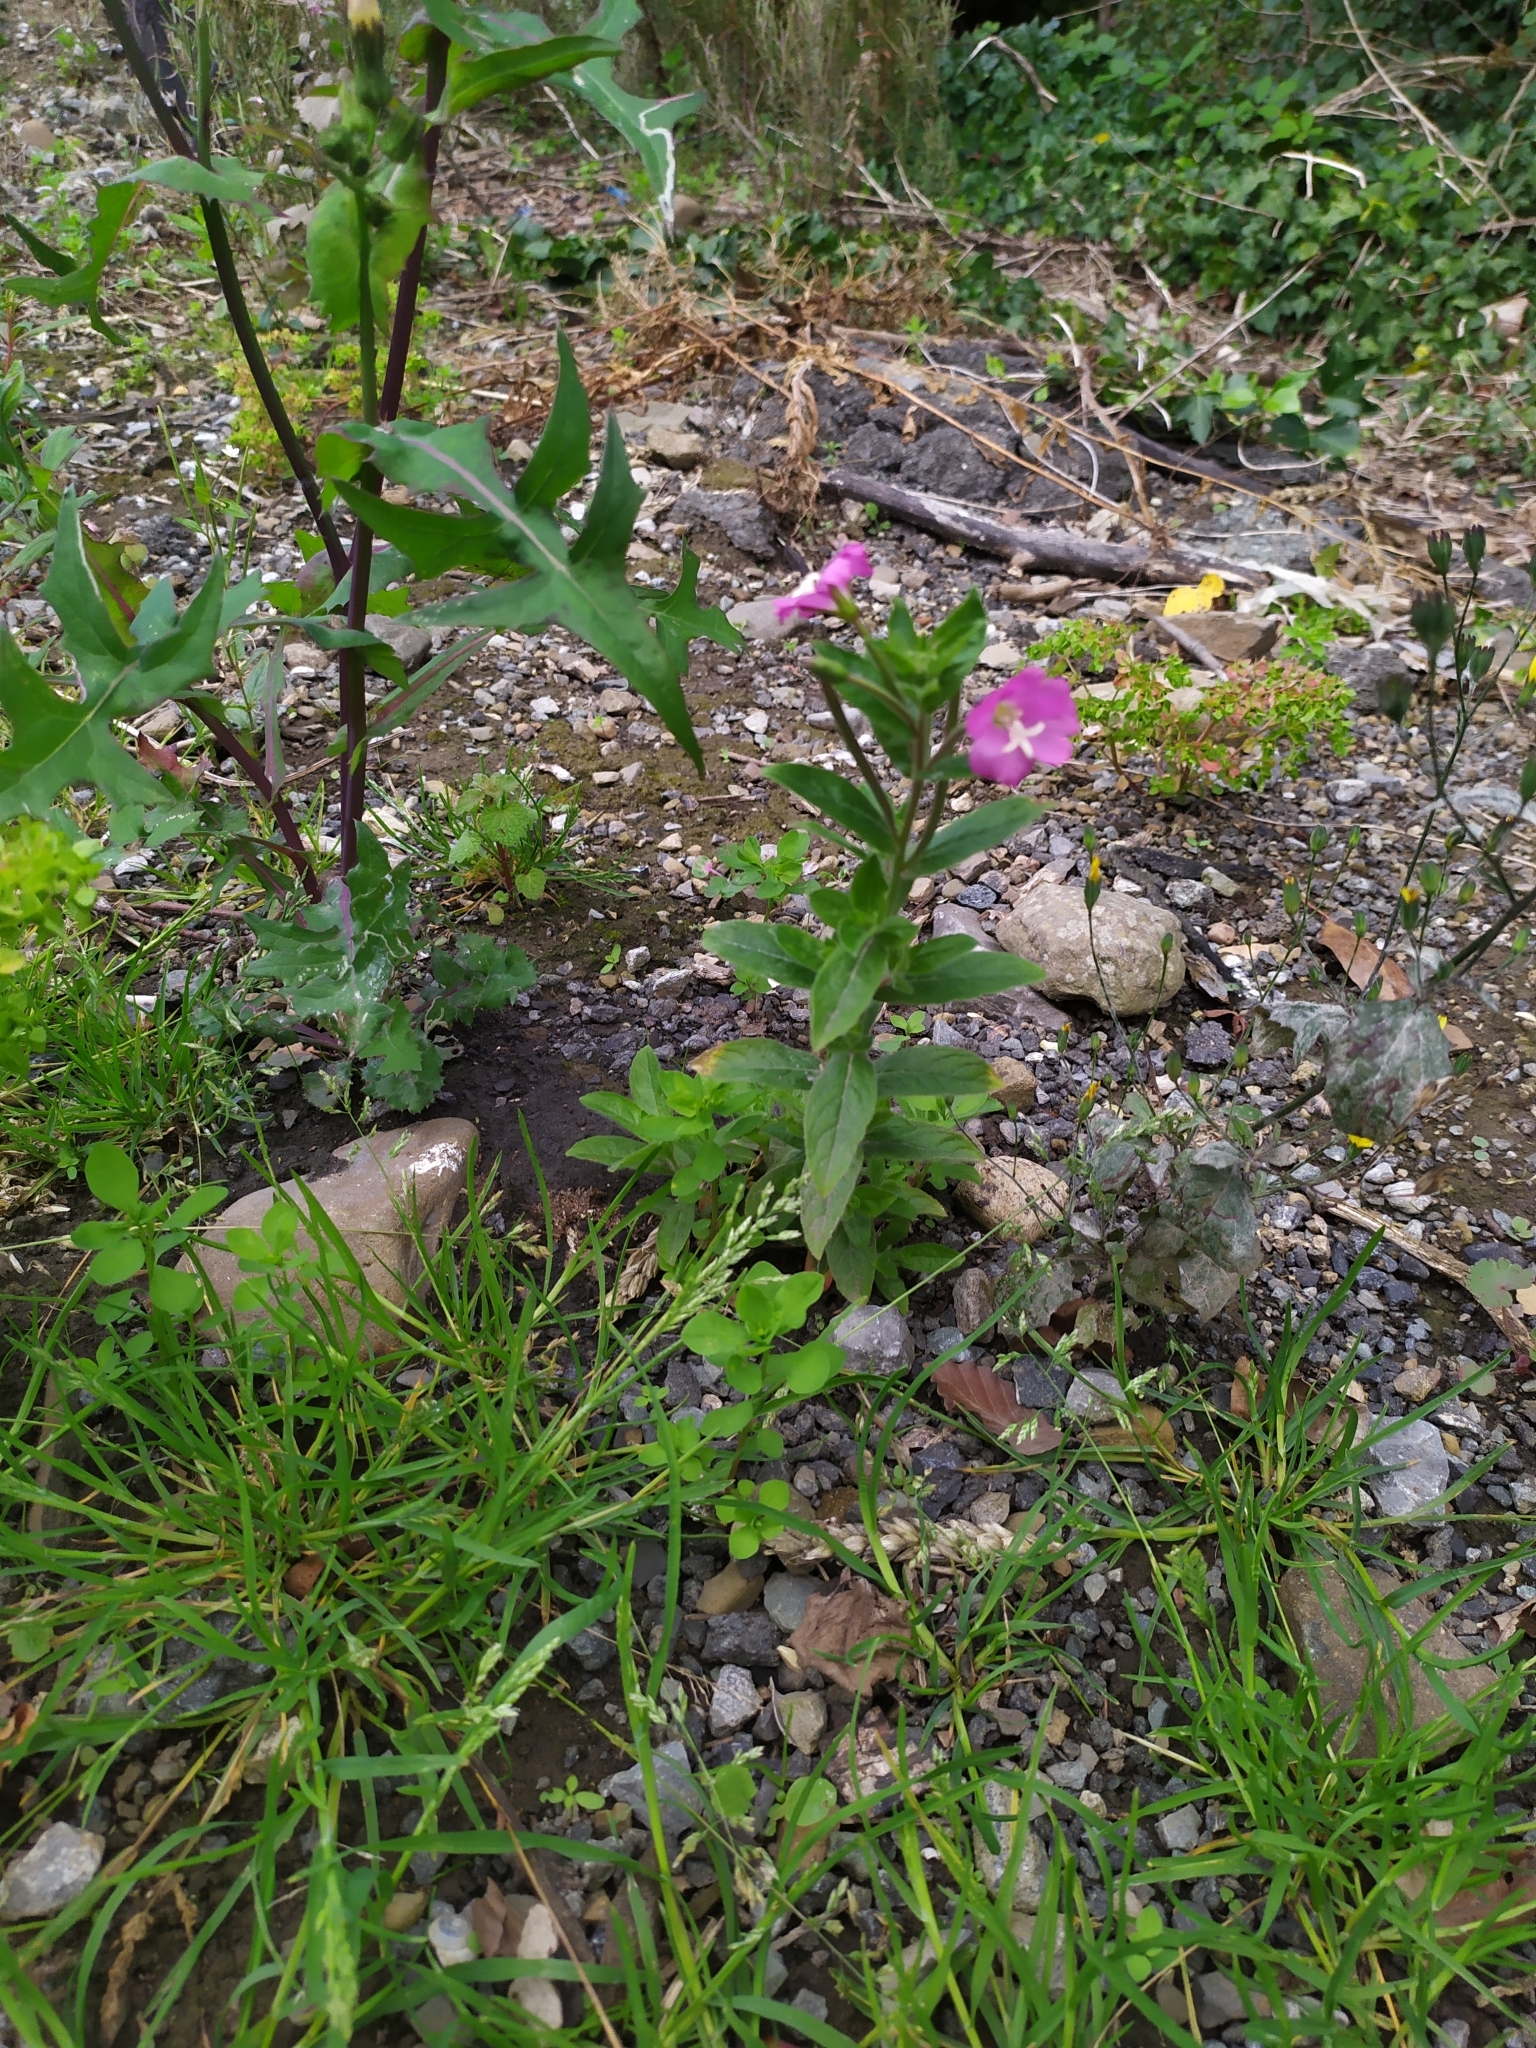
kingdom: Plantae
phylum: Tracheophyta
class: Magnoliopsida
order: Myrtales
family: Onagraceae
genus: Epilobium
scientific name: Epilobium hirsutum
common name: Great willowherb
